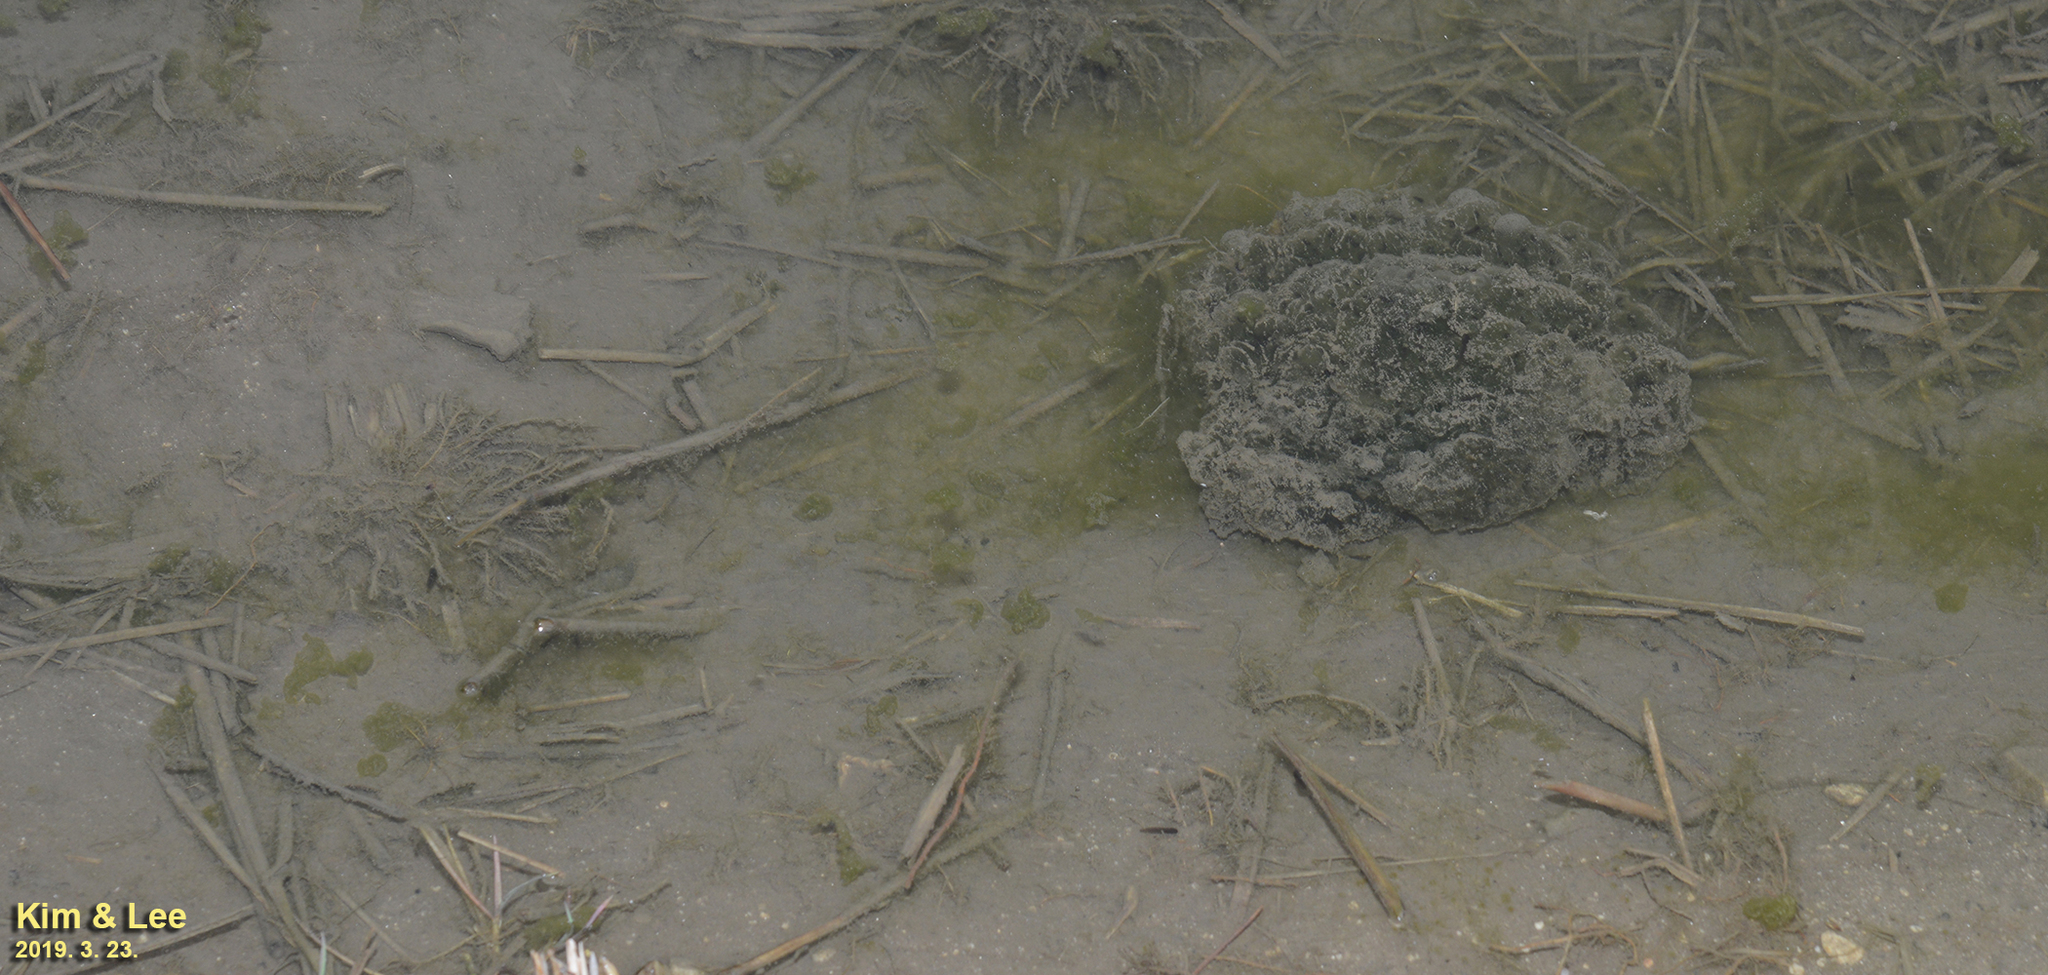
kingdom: Animalia
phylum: Chordata
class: Amphibia
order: Anura
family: Ranidae
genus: Rana
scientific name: Rana uenoi
